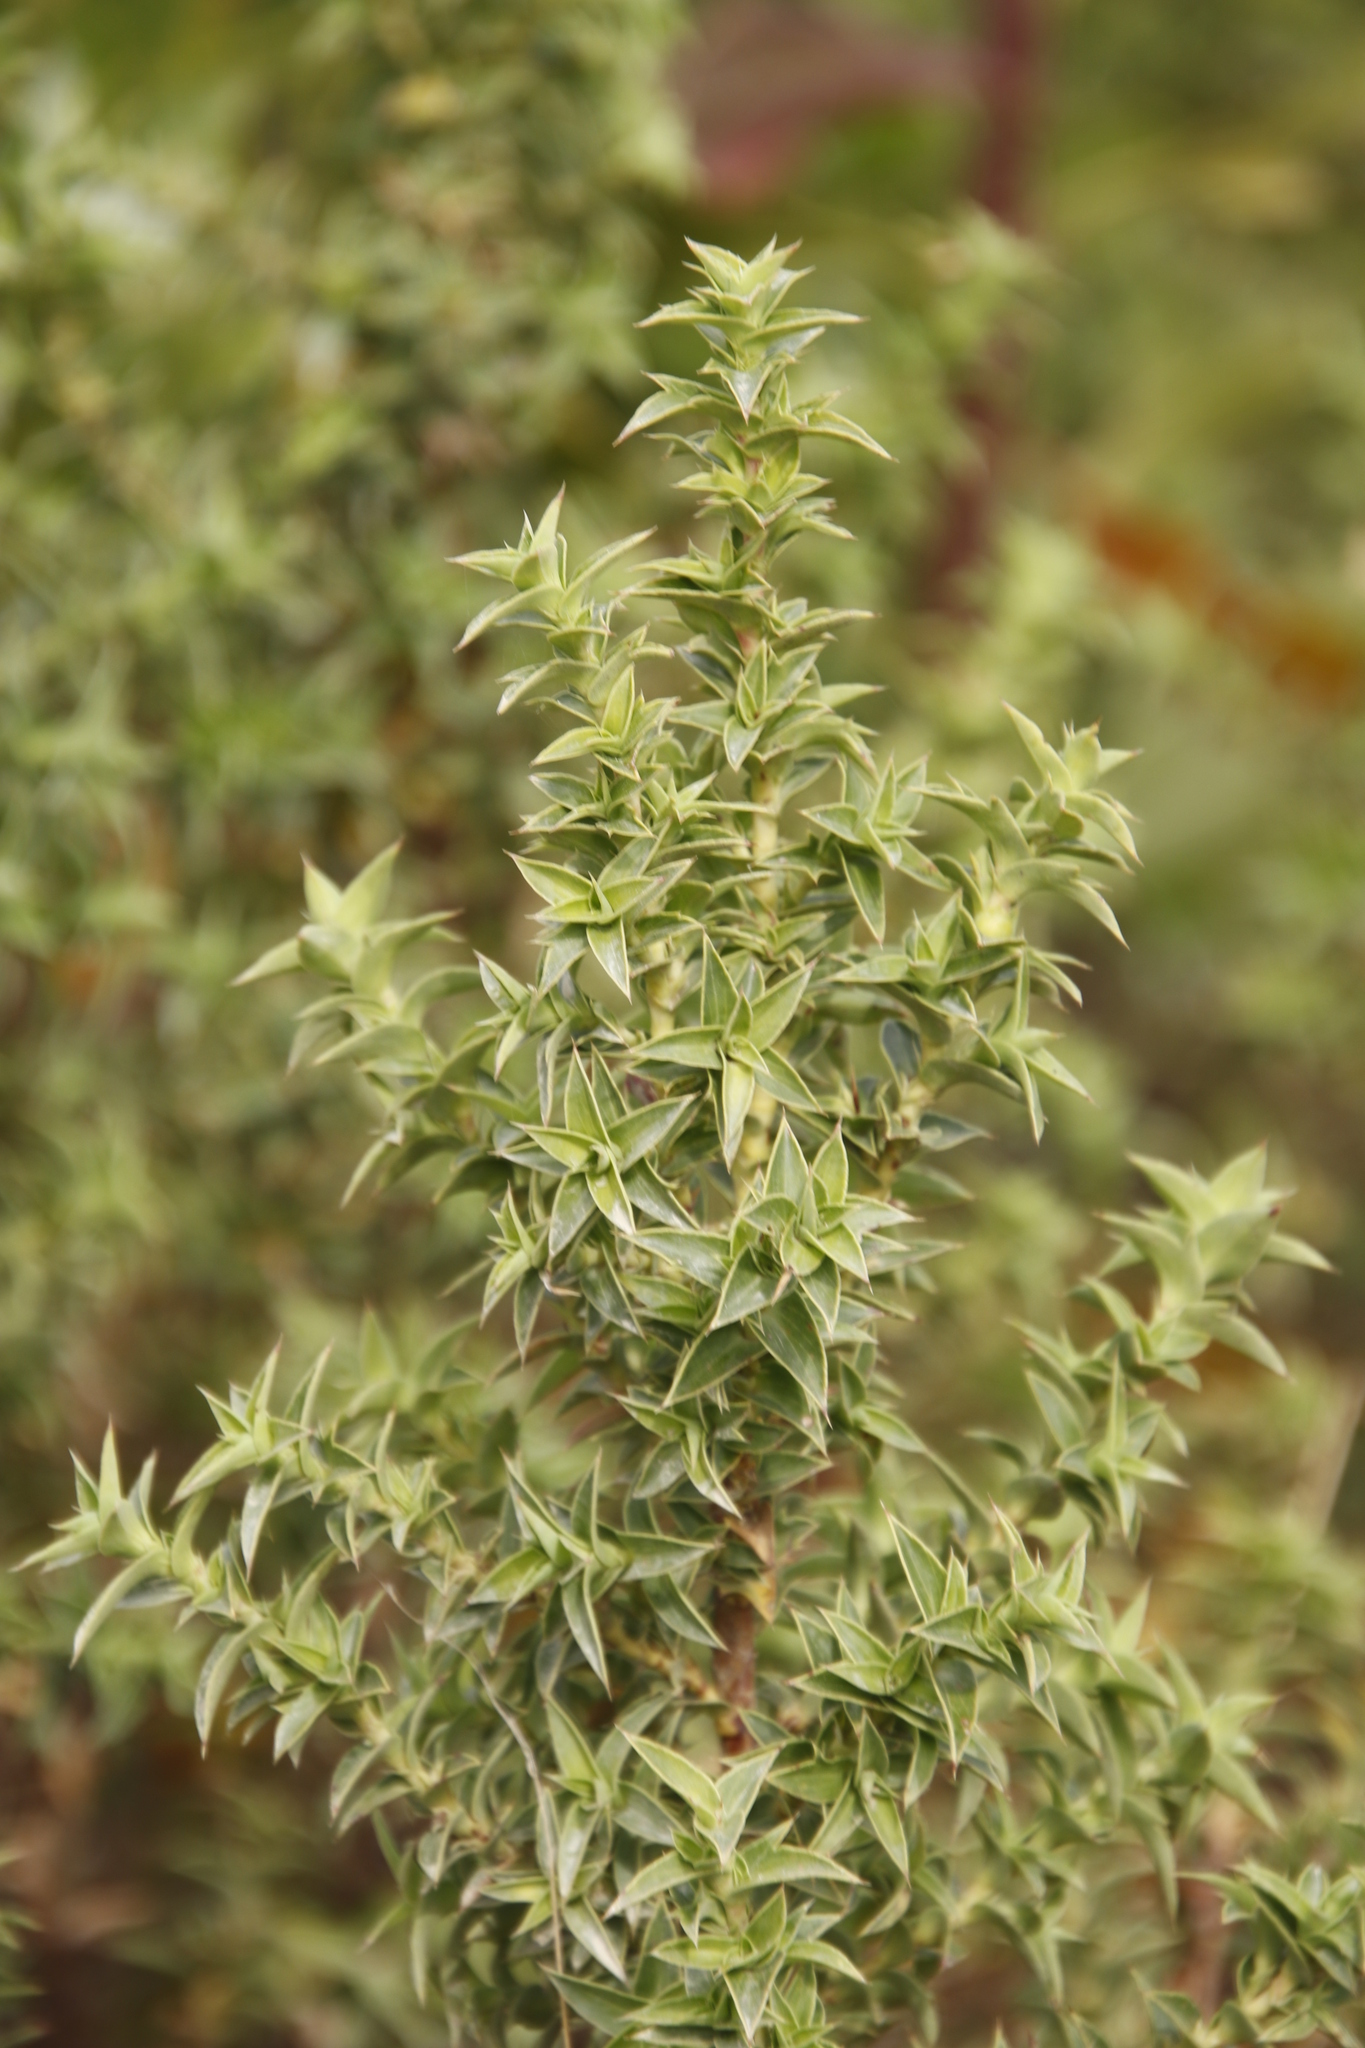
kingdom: Plantae
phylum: Tracheophyta
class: Magnoliopsida
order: Rosales
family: Rosaceae
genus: Cliffortia
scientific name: Cliffortia ilicifolia
